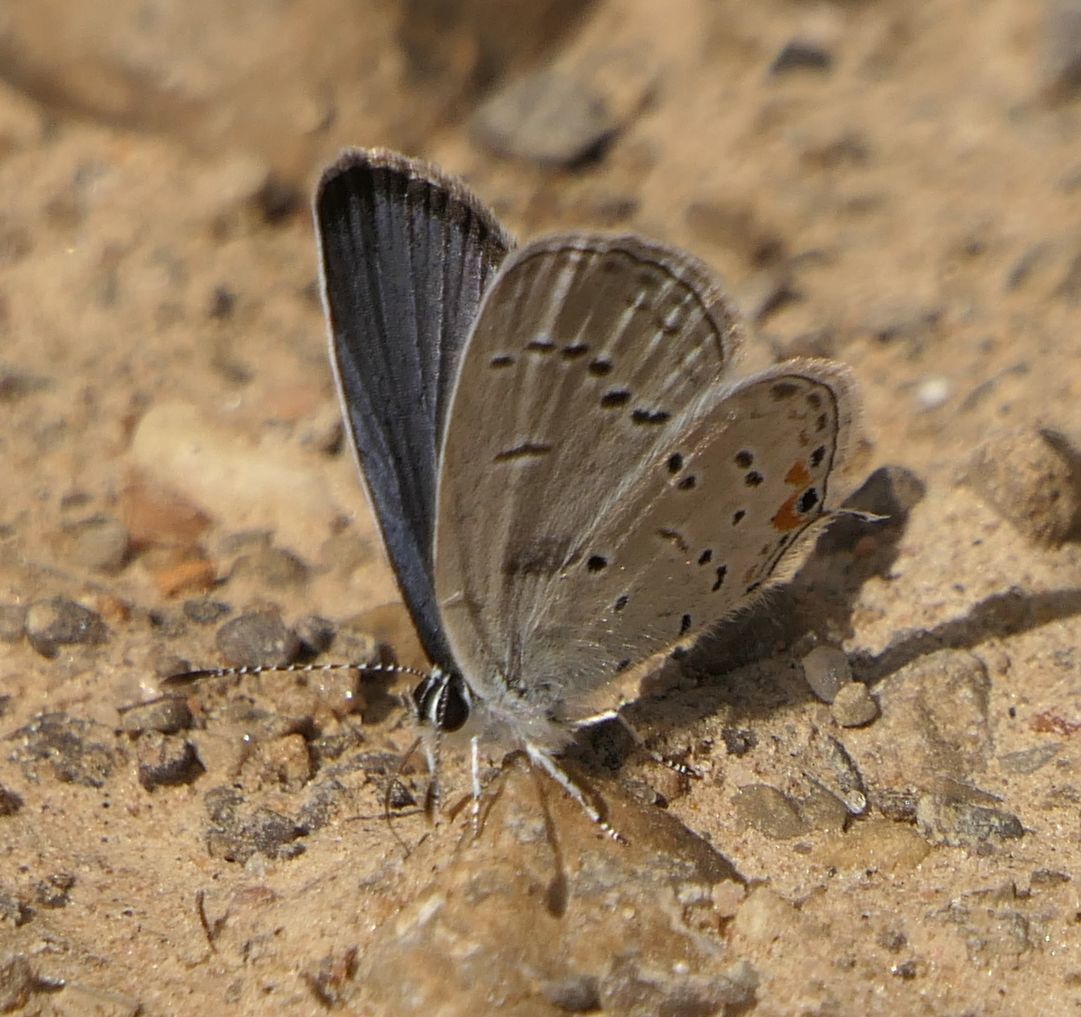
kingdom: Animalia
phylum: Arthropoda
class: Insecta
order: Lepidoptera
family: Lycaenidae
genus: Elkalyce
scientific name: Elkalyce comyntas
